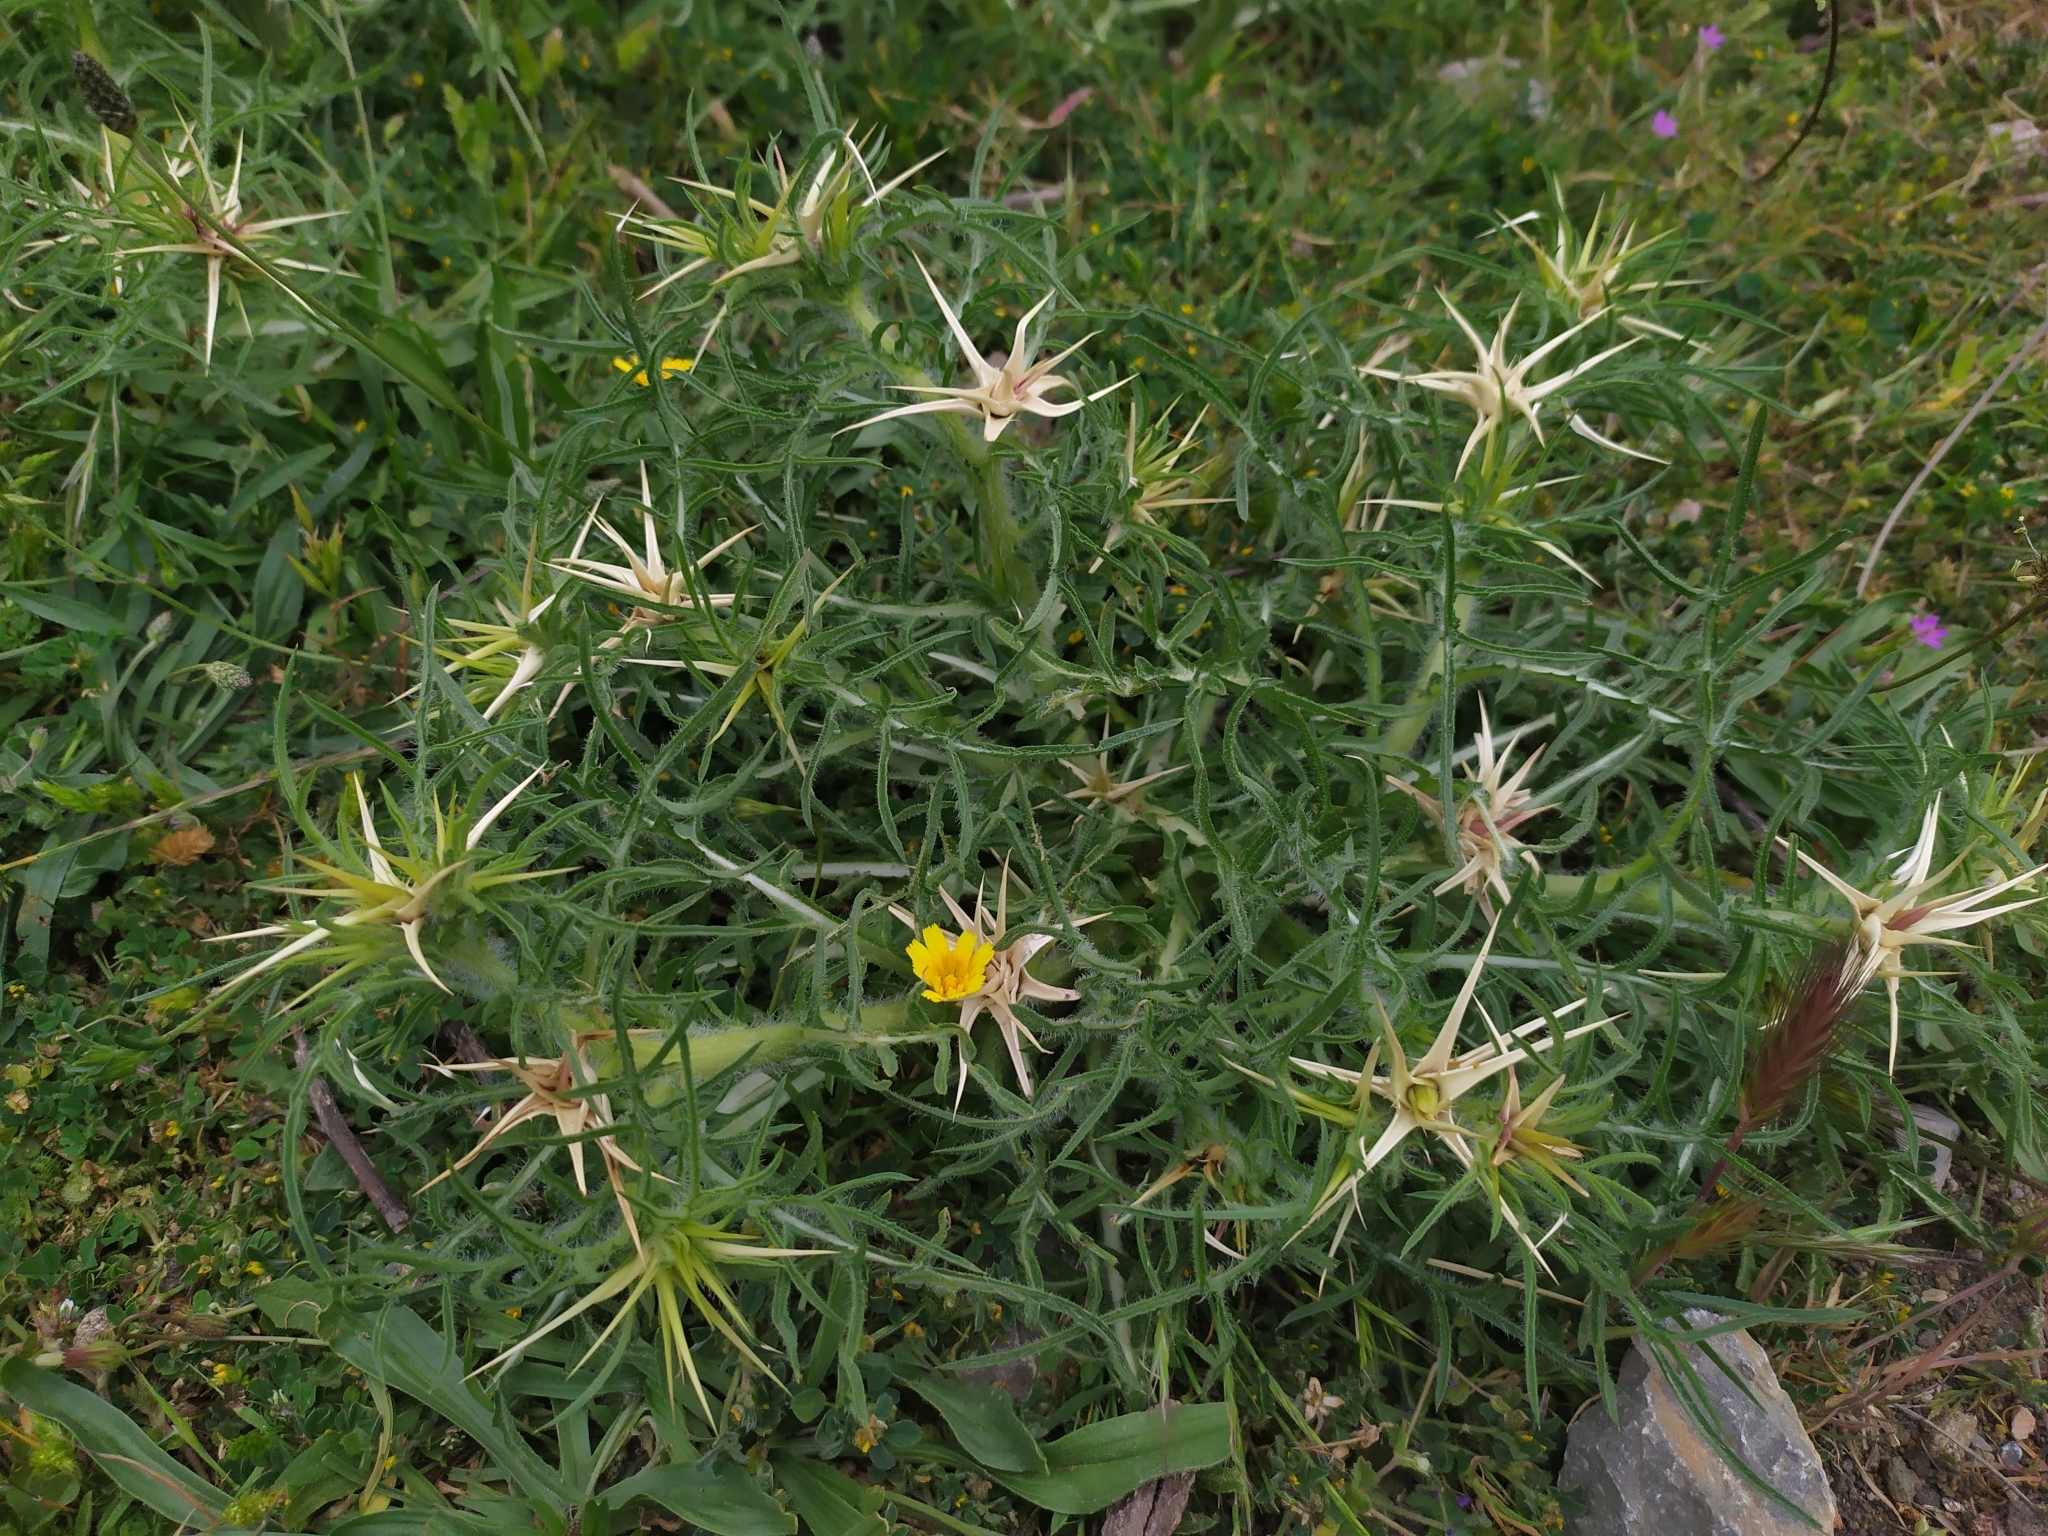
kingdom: Plantae
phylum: Tracheophyta
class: Magnoliopsida
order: Asterales
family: Asteraceae
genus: Centaurea
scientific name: Centaurea calcitrapa
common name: Red star-thistle
